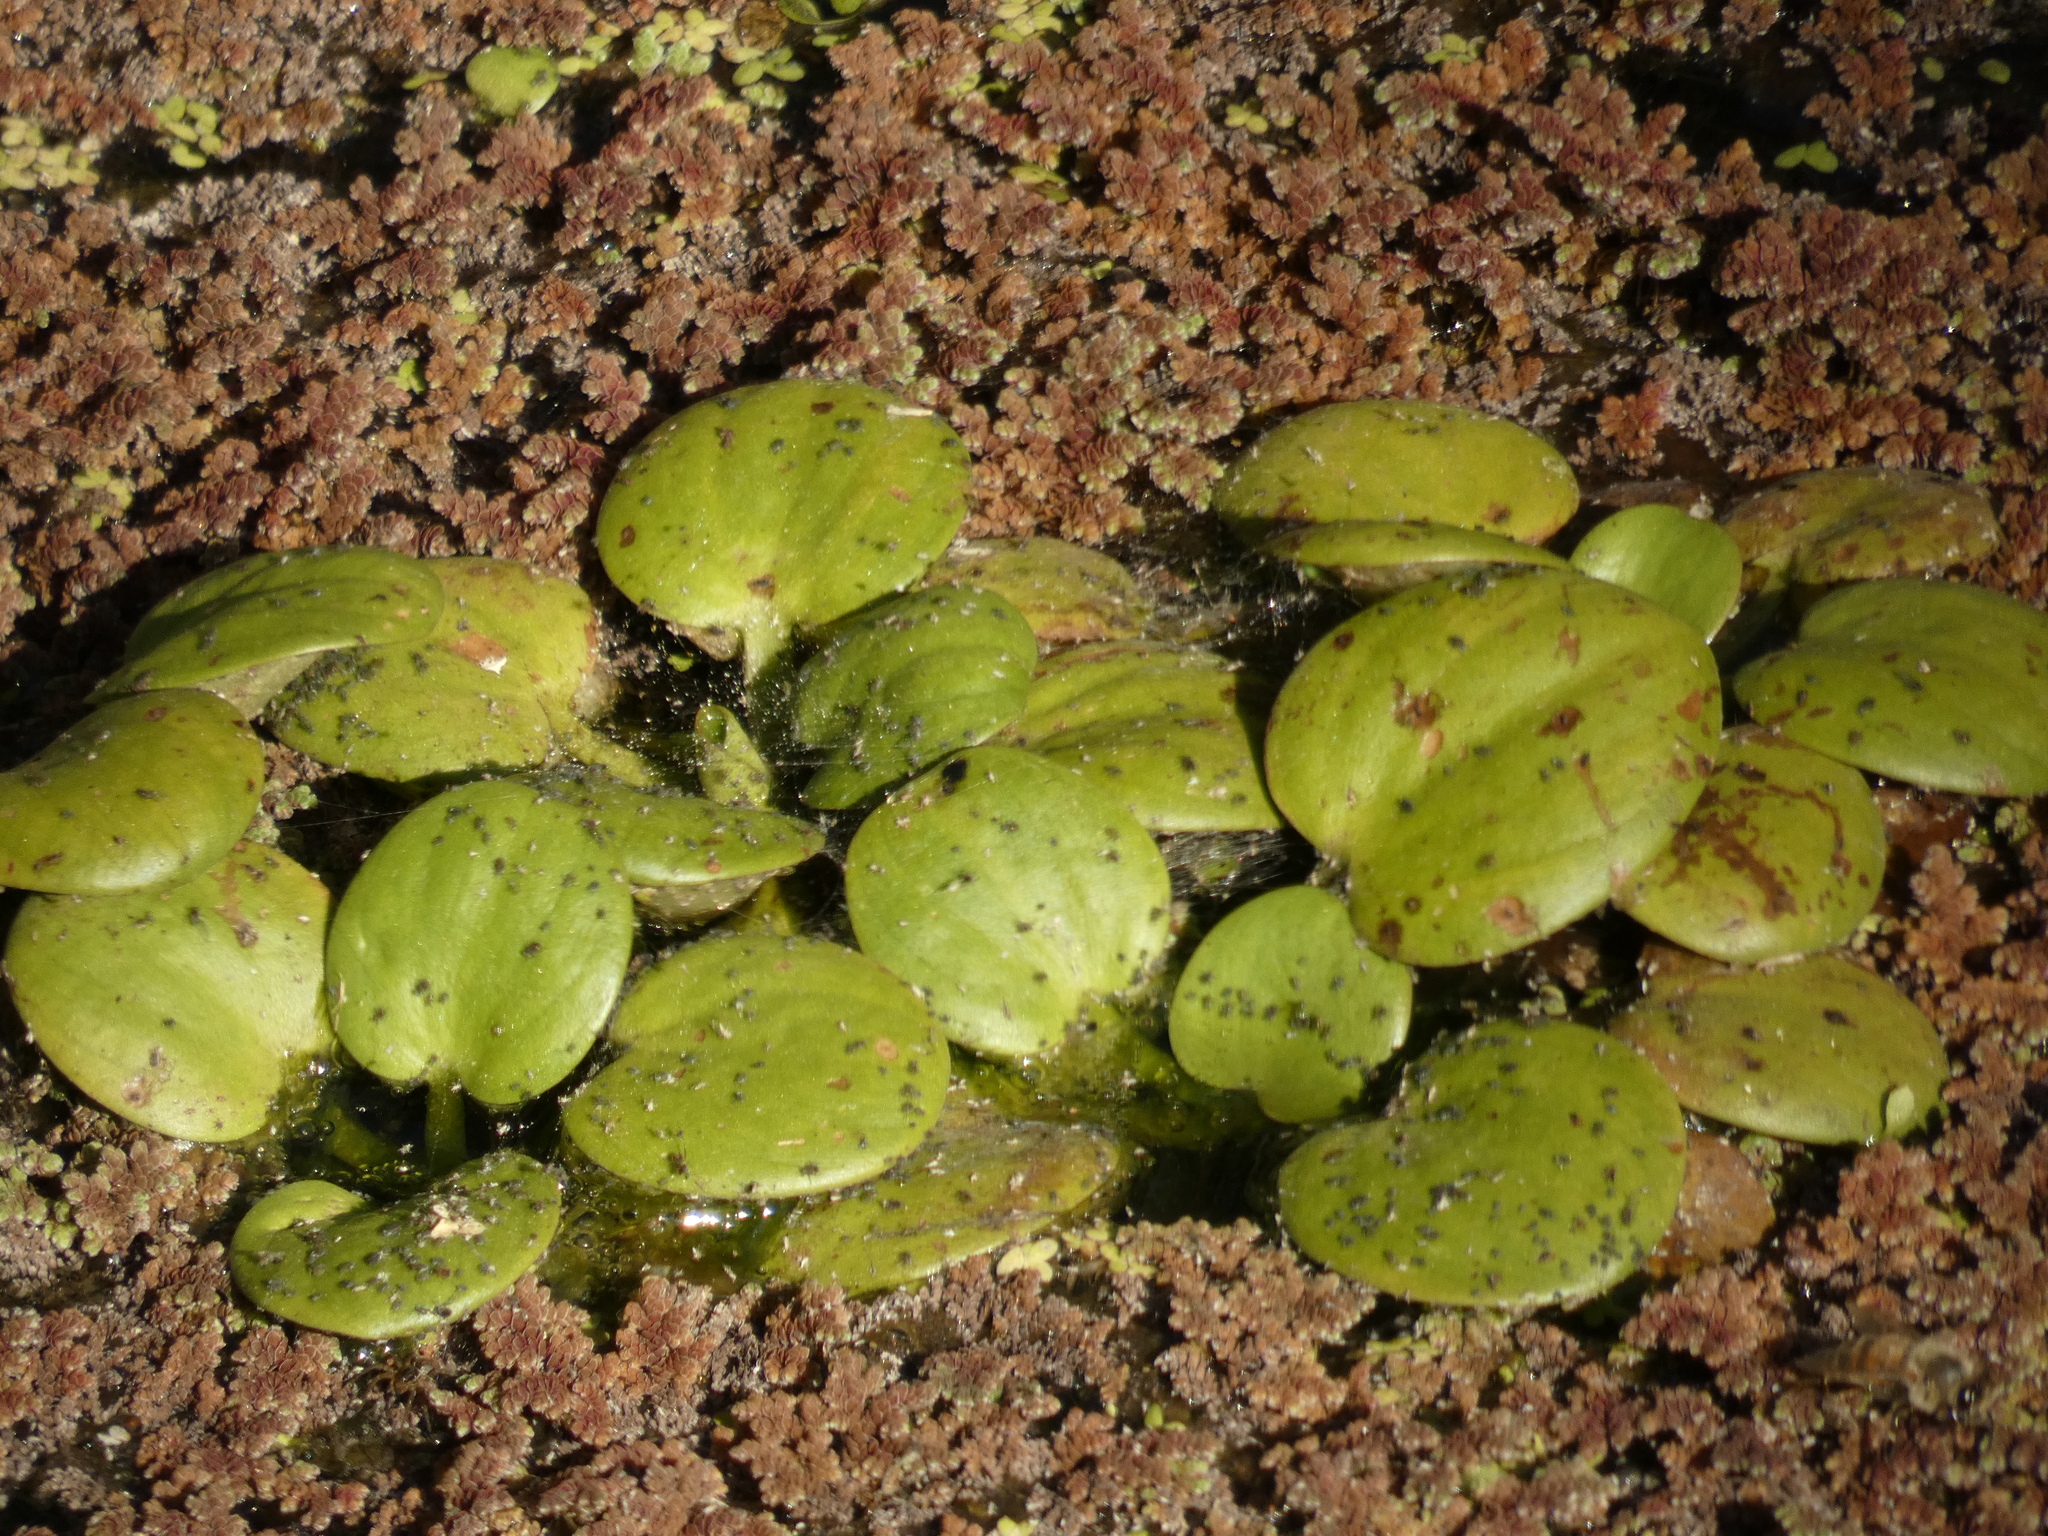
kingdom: Plantae
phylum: Tracheophyta
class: Liliopsida
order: Alismatales
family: Hydrocharitaceae
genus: Hydrocharis
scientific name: Hydrocharis laevigata
